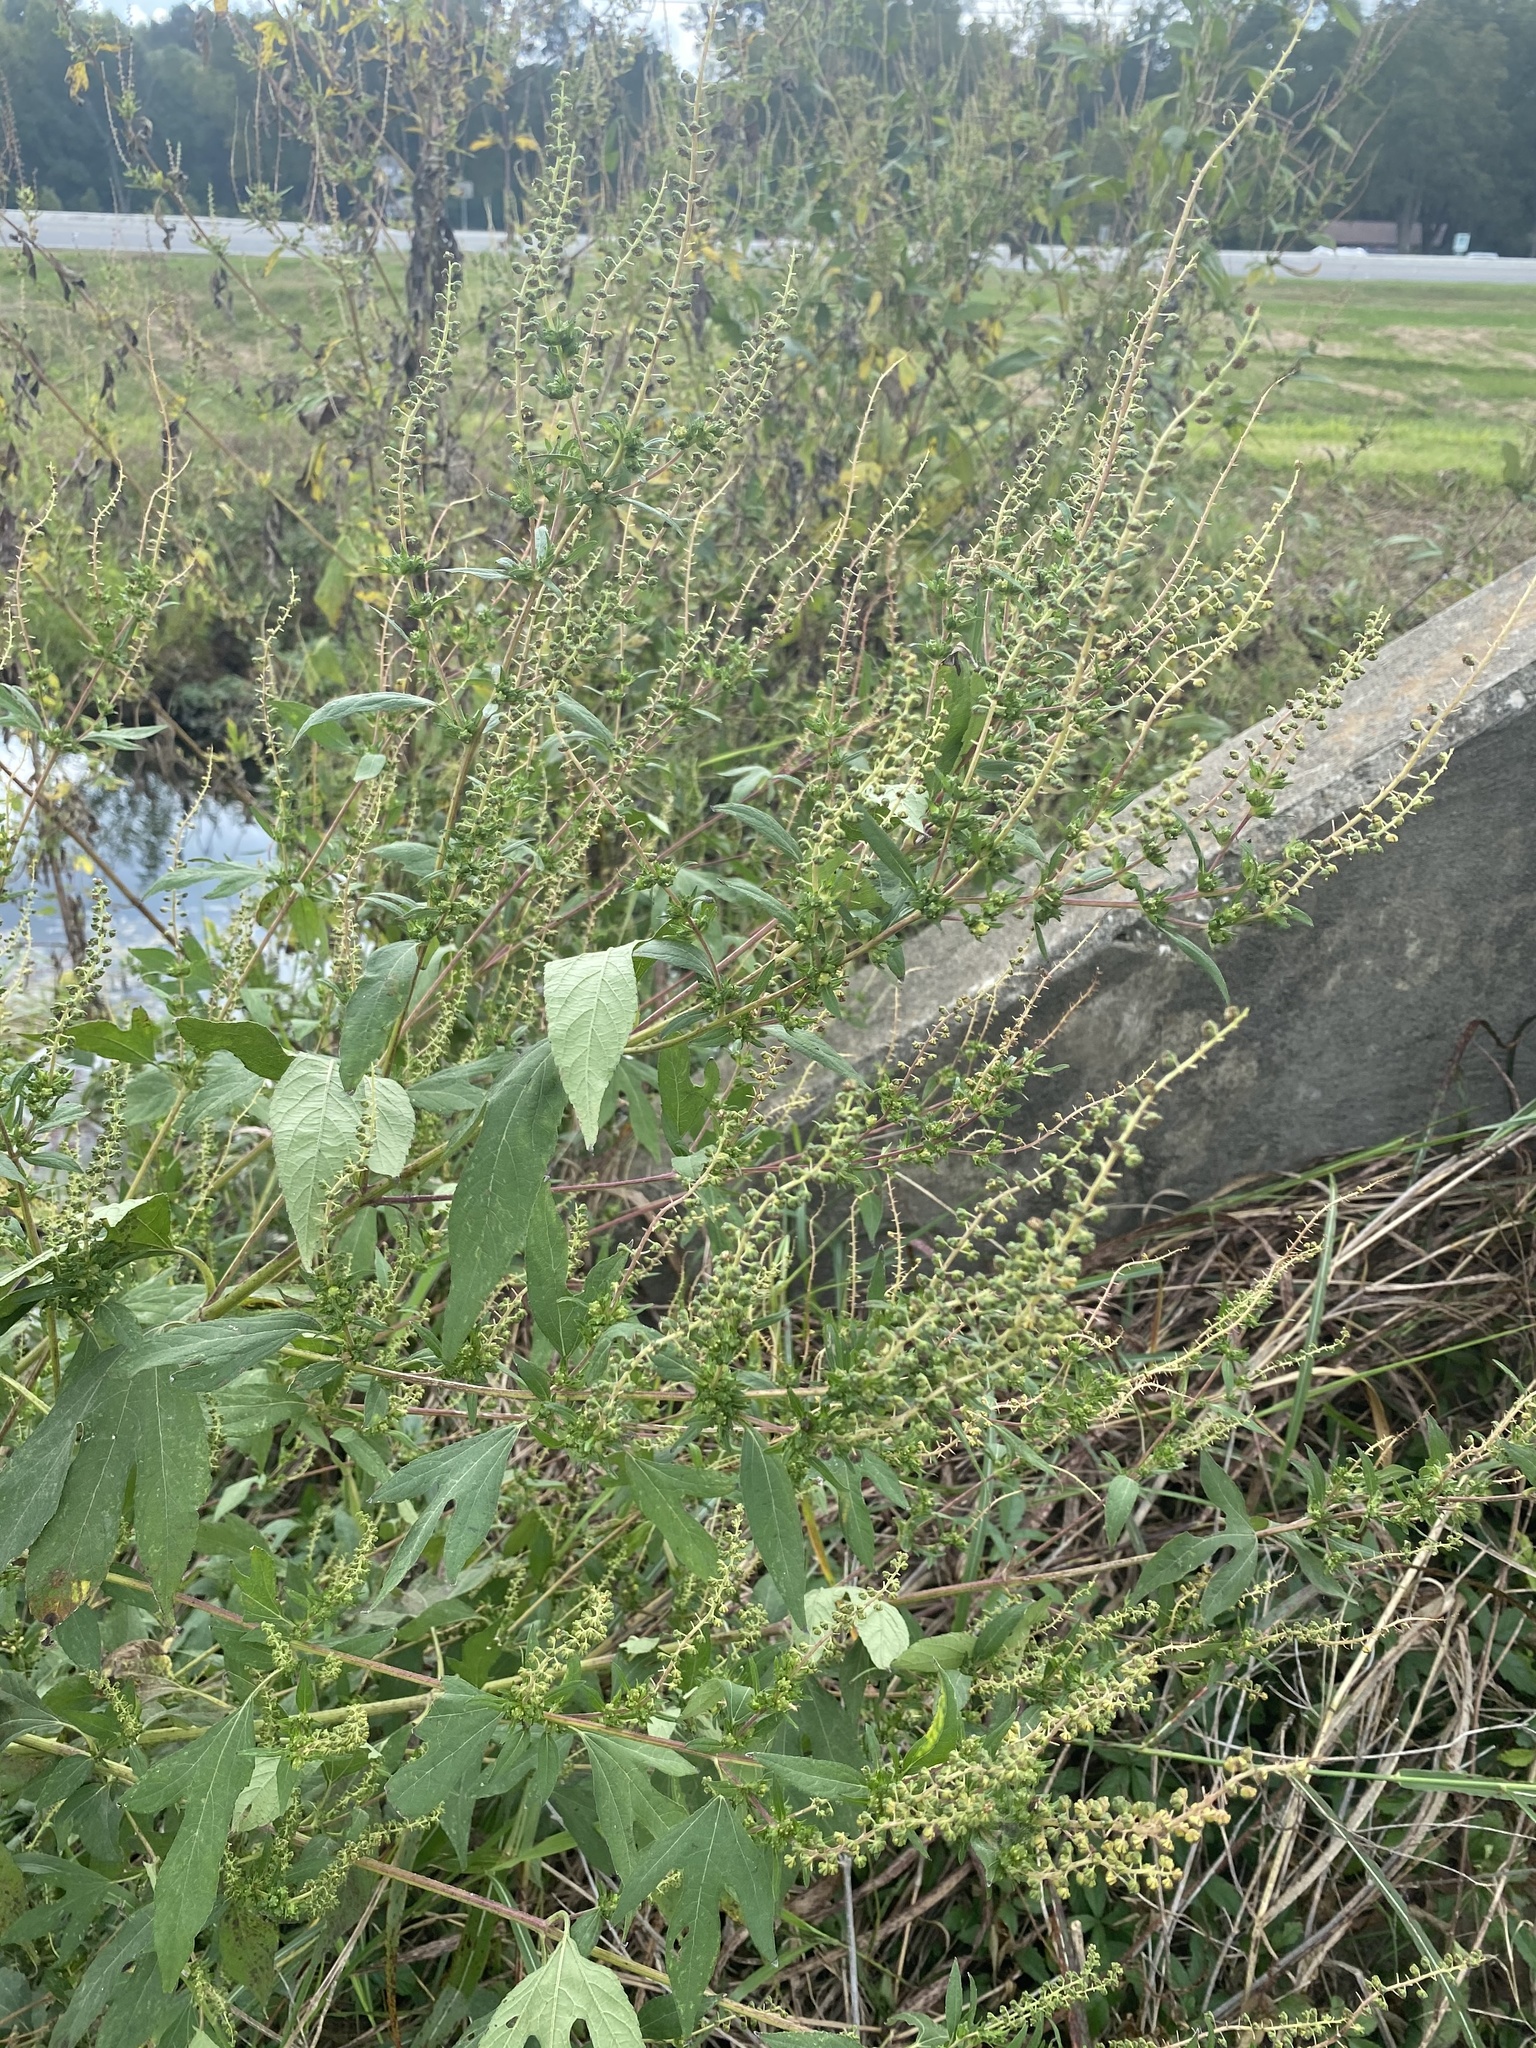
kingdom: Plantae
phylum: Tracheophyta
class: Magnoliopsida
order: Asterales
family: Asteraceae
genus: Ambrosia
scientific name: Ambrosia trifida
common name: Giant ragweed
